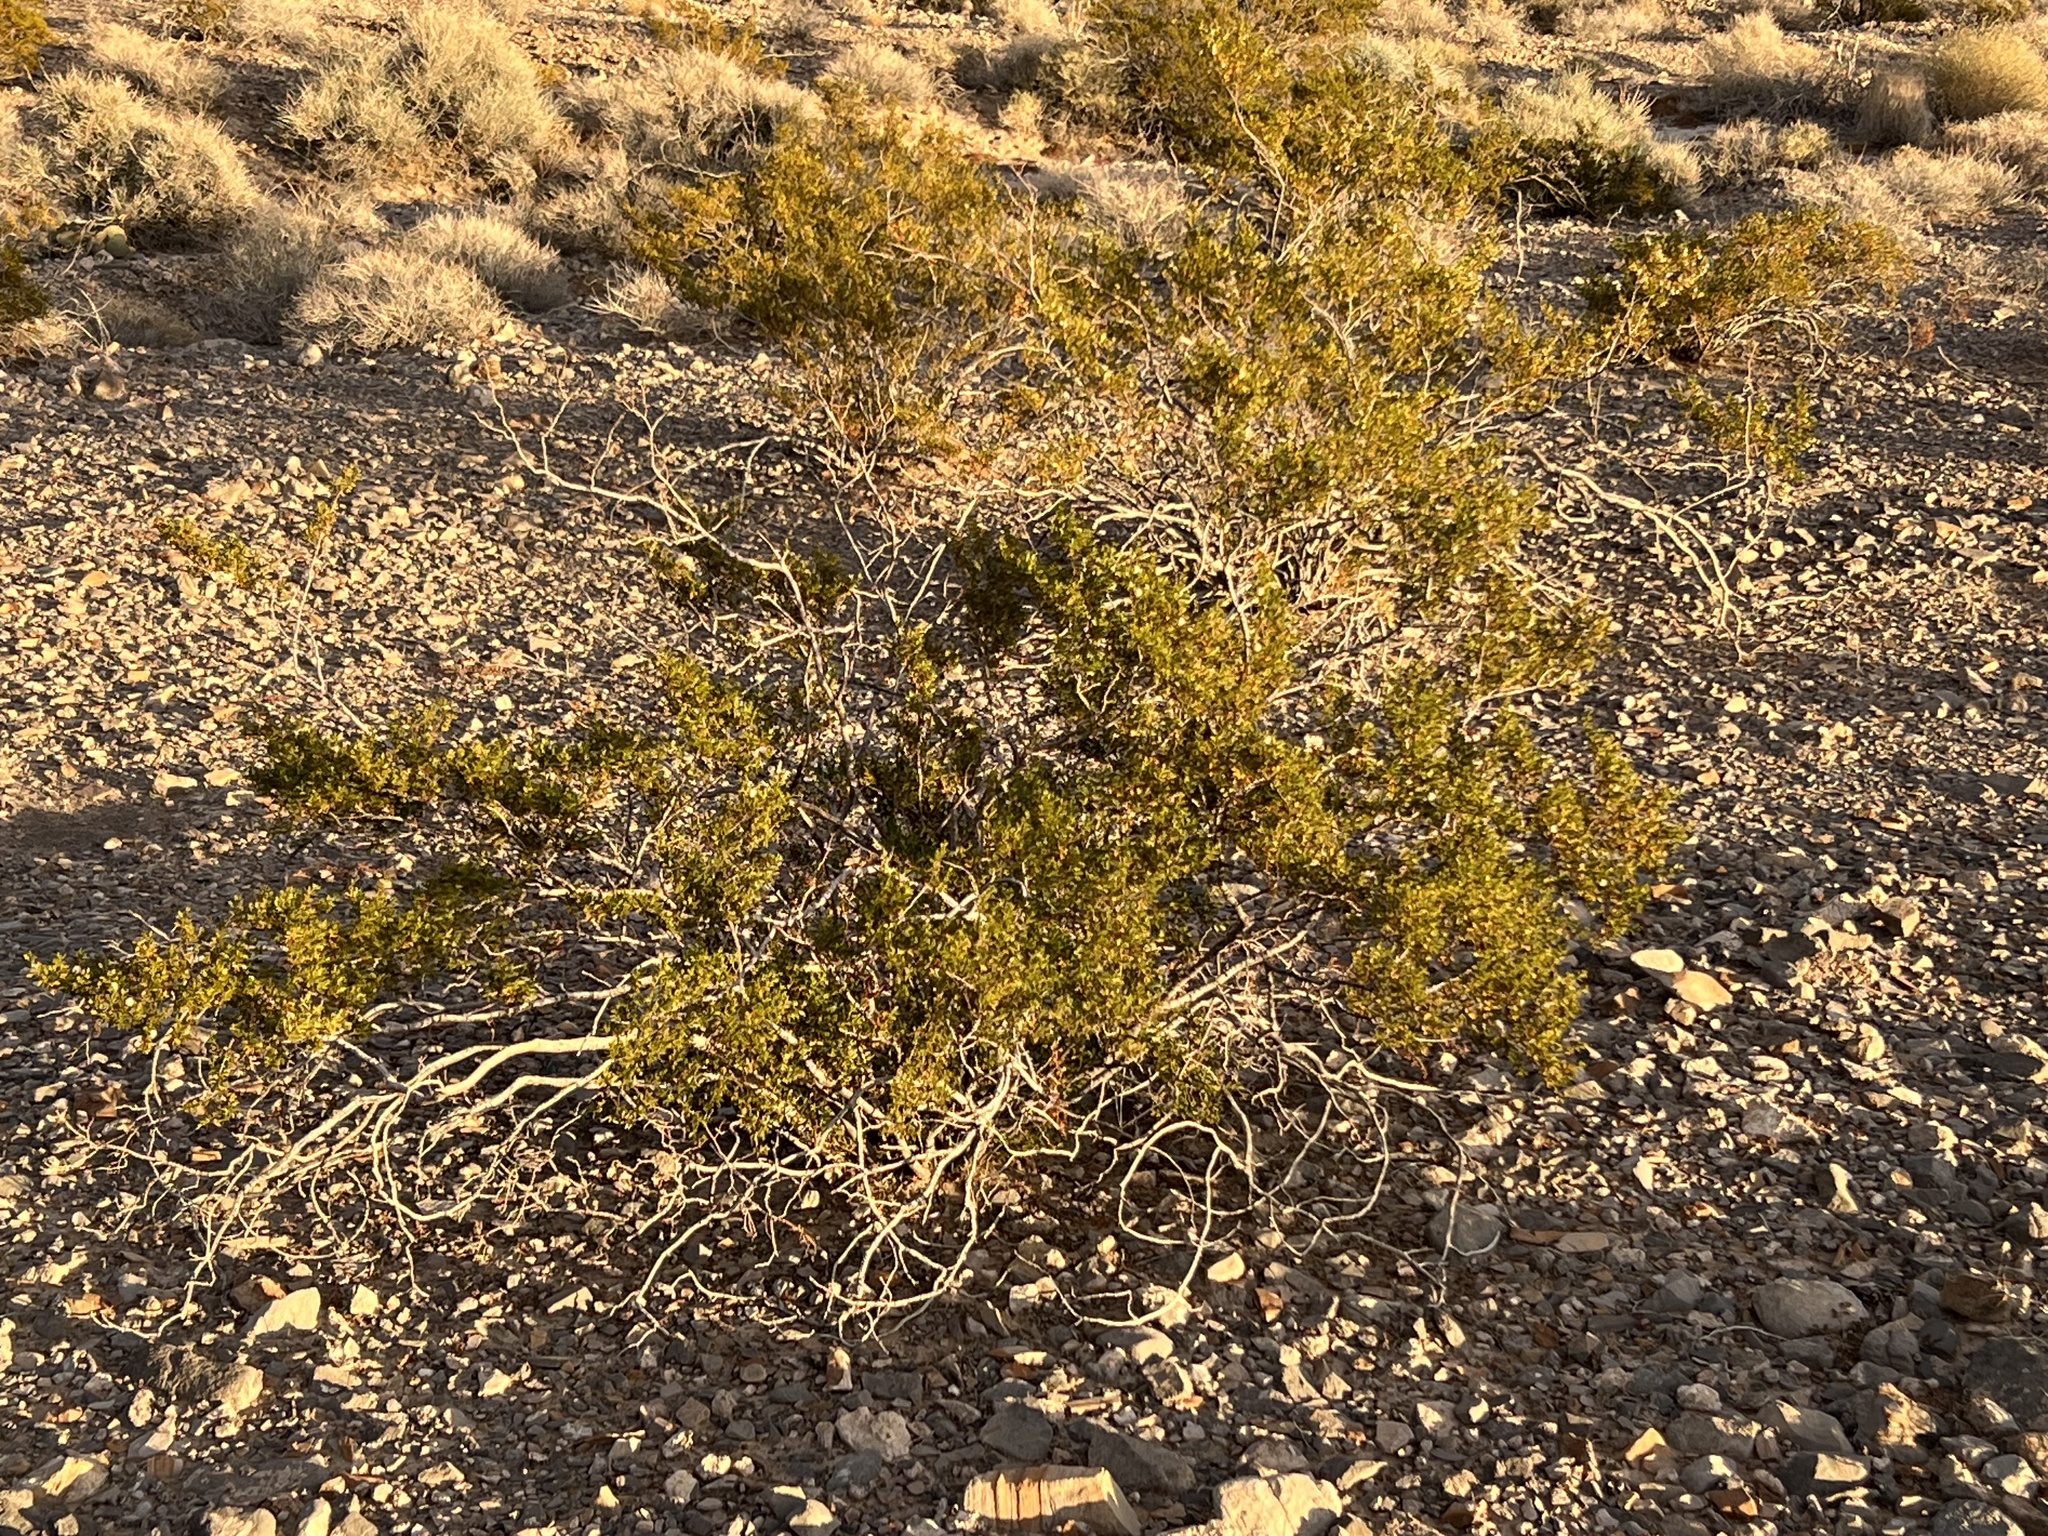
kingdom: Plantae
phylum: Tracheophyta
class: Magnoliopsida
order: Zygophyllales
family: Zygophyllaceae
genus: Larrea
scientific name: Larrea tridentata
